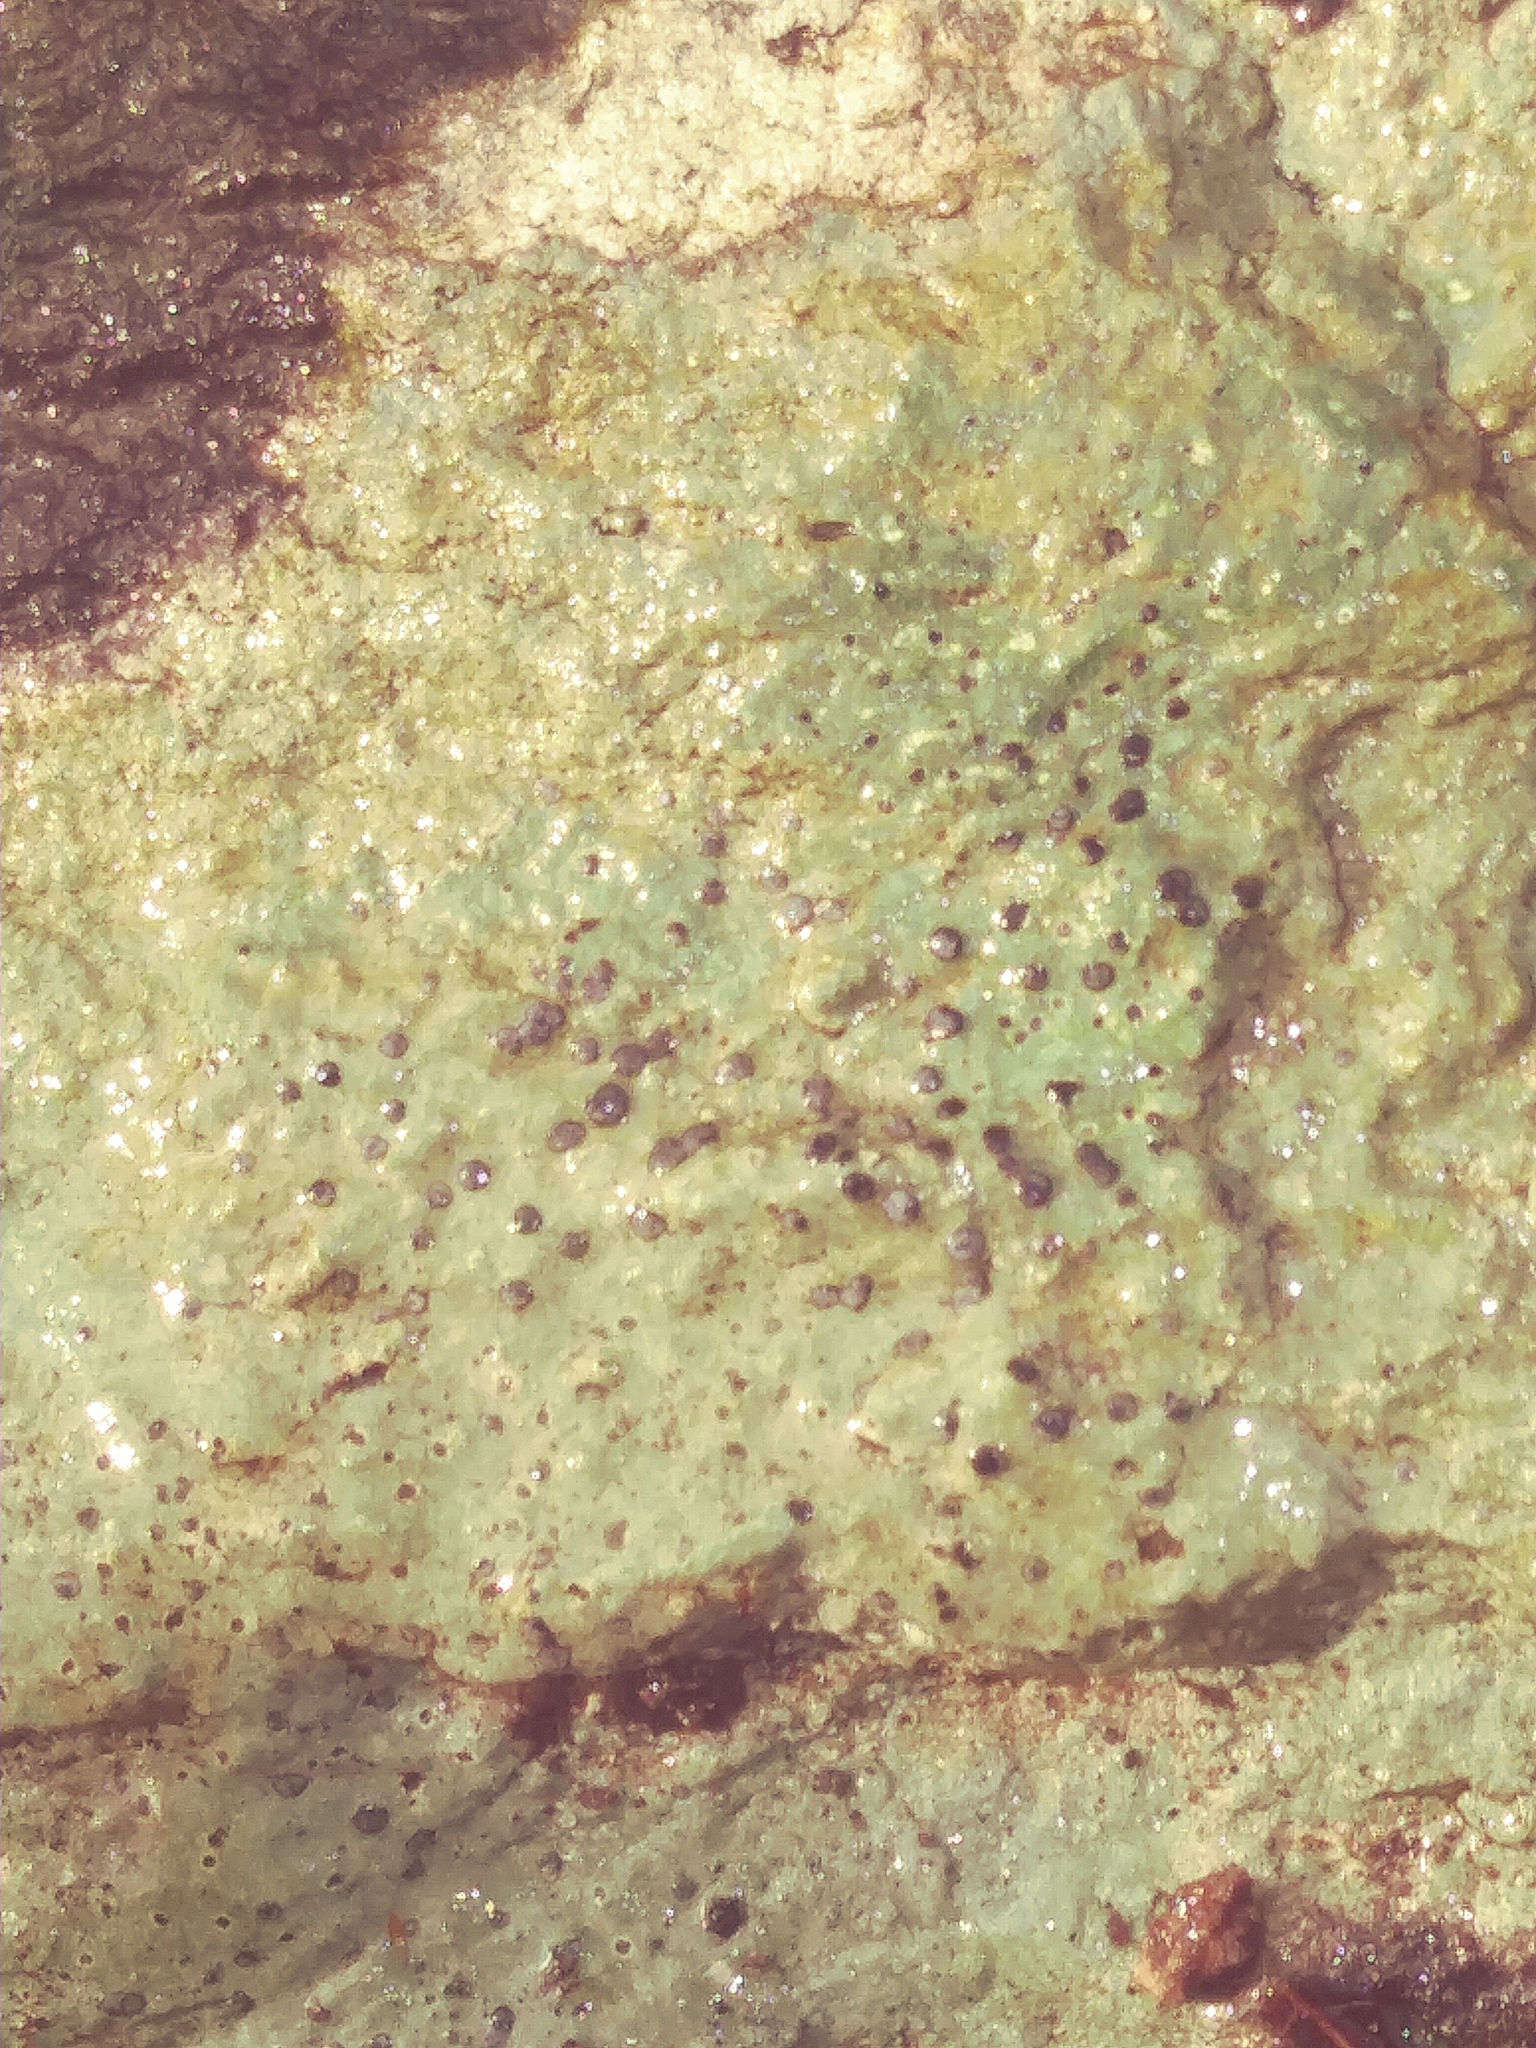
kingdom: Fungi
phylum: Ascomycota
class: Lecanoromycetes
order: Acarosporales
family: Acarosporaceae
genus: Sarcogyne
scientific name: Sarcogyne regularis
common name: Frosted grain-spored lichen
